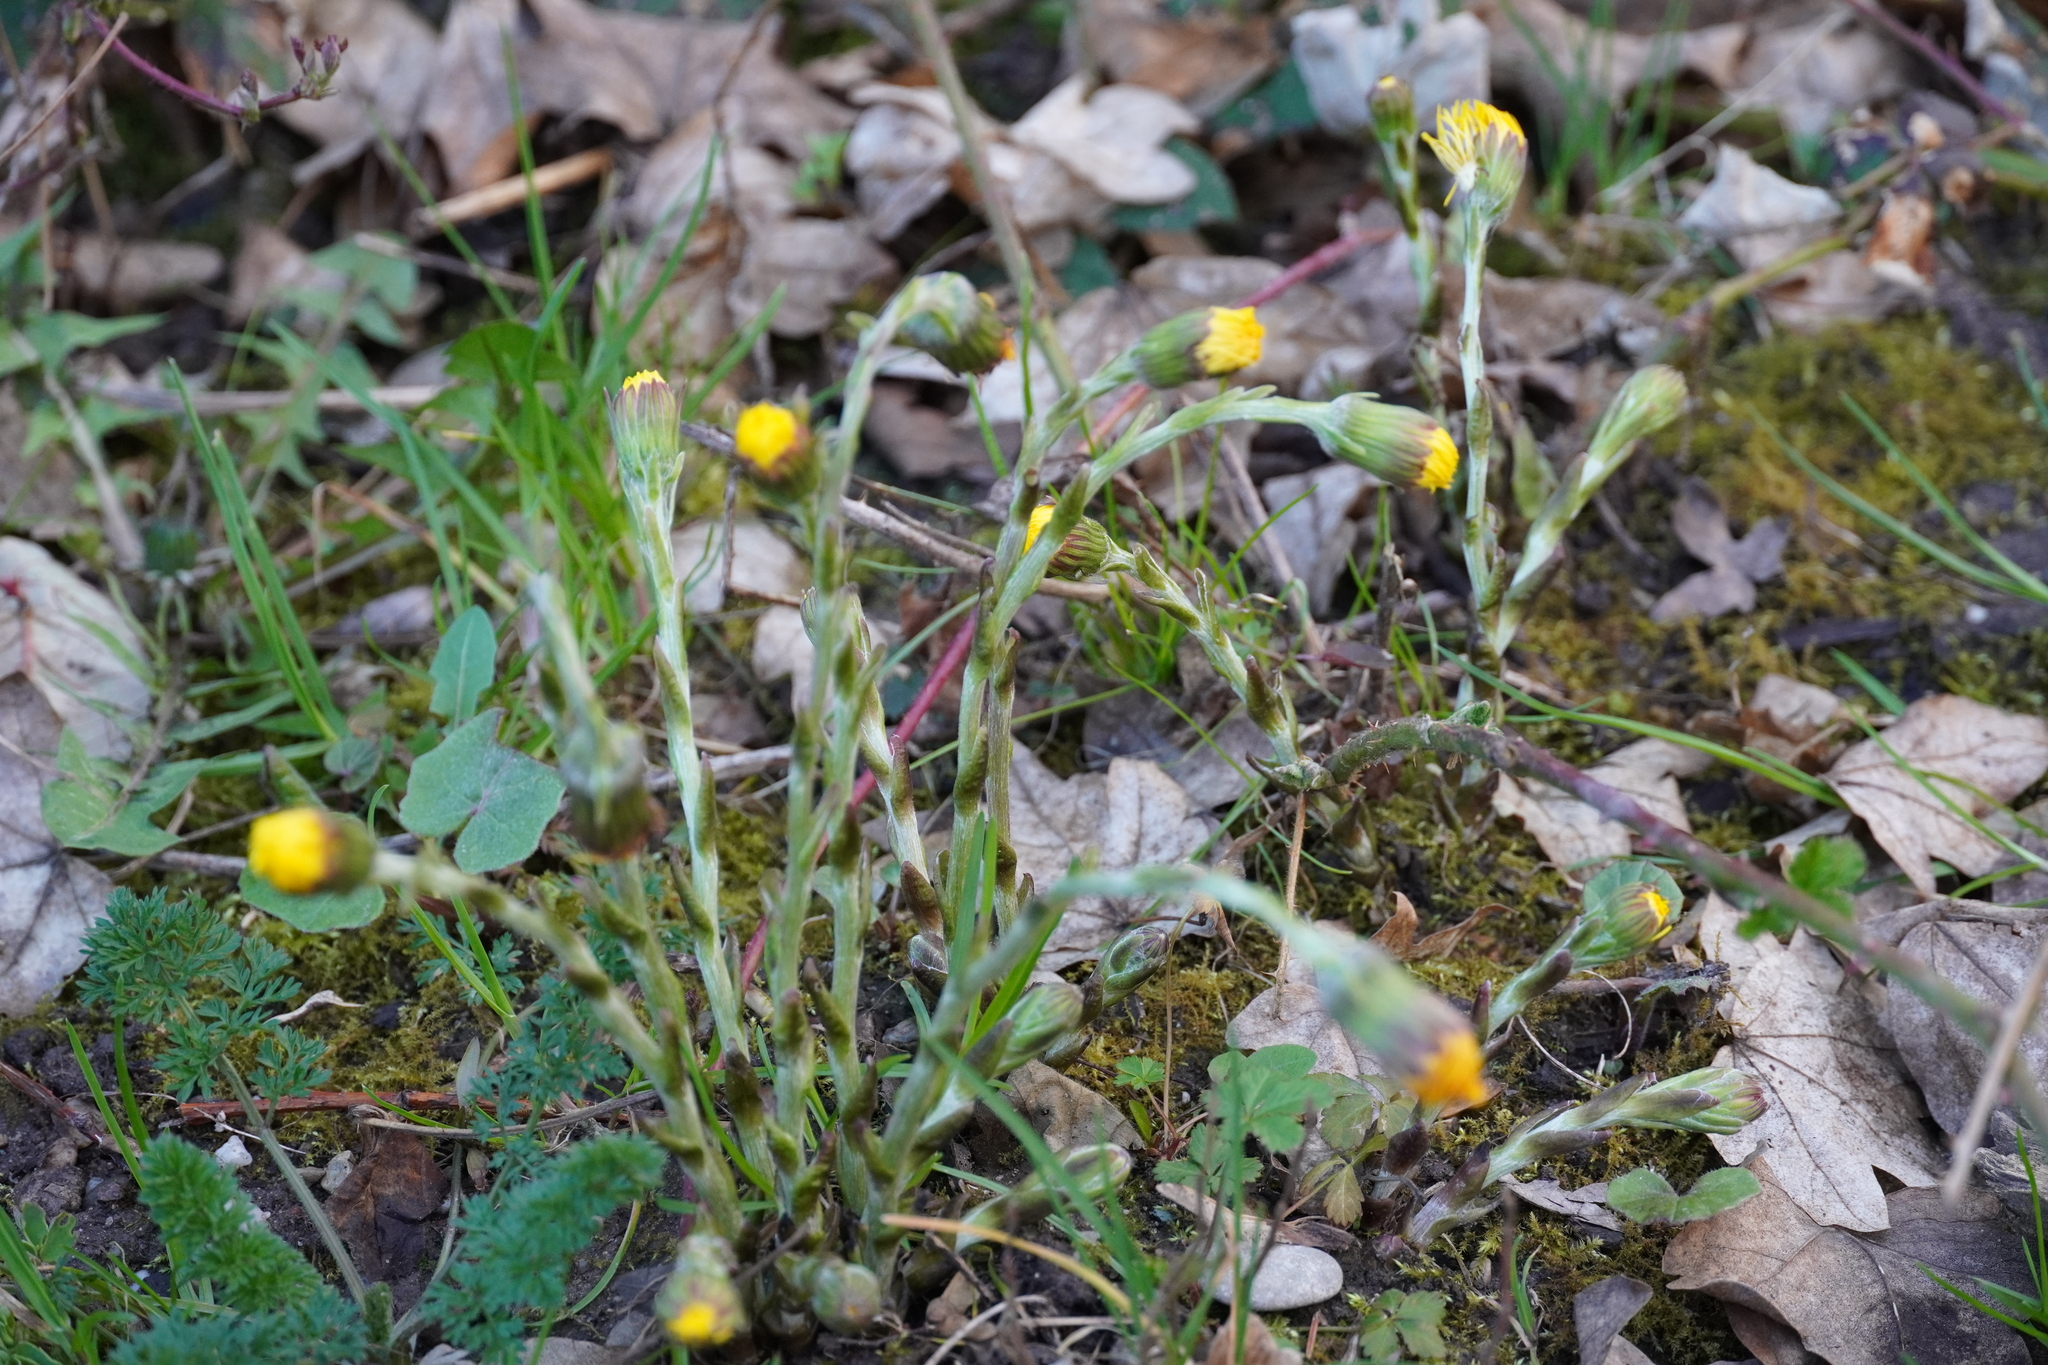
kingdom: Plantae
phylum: Tracheophyta
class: Magnoliopsida
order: Asterales
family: Asteraceae
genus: Tussilago
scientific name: Tussilago farfara
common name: Coltsfoot
